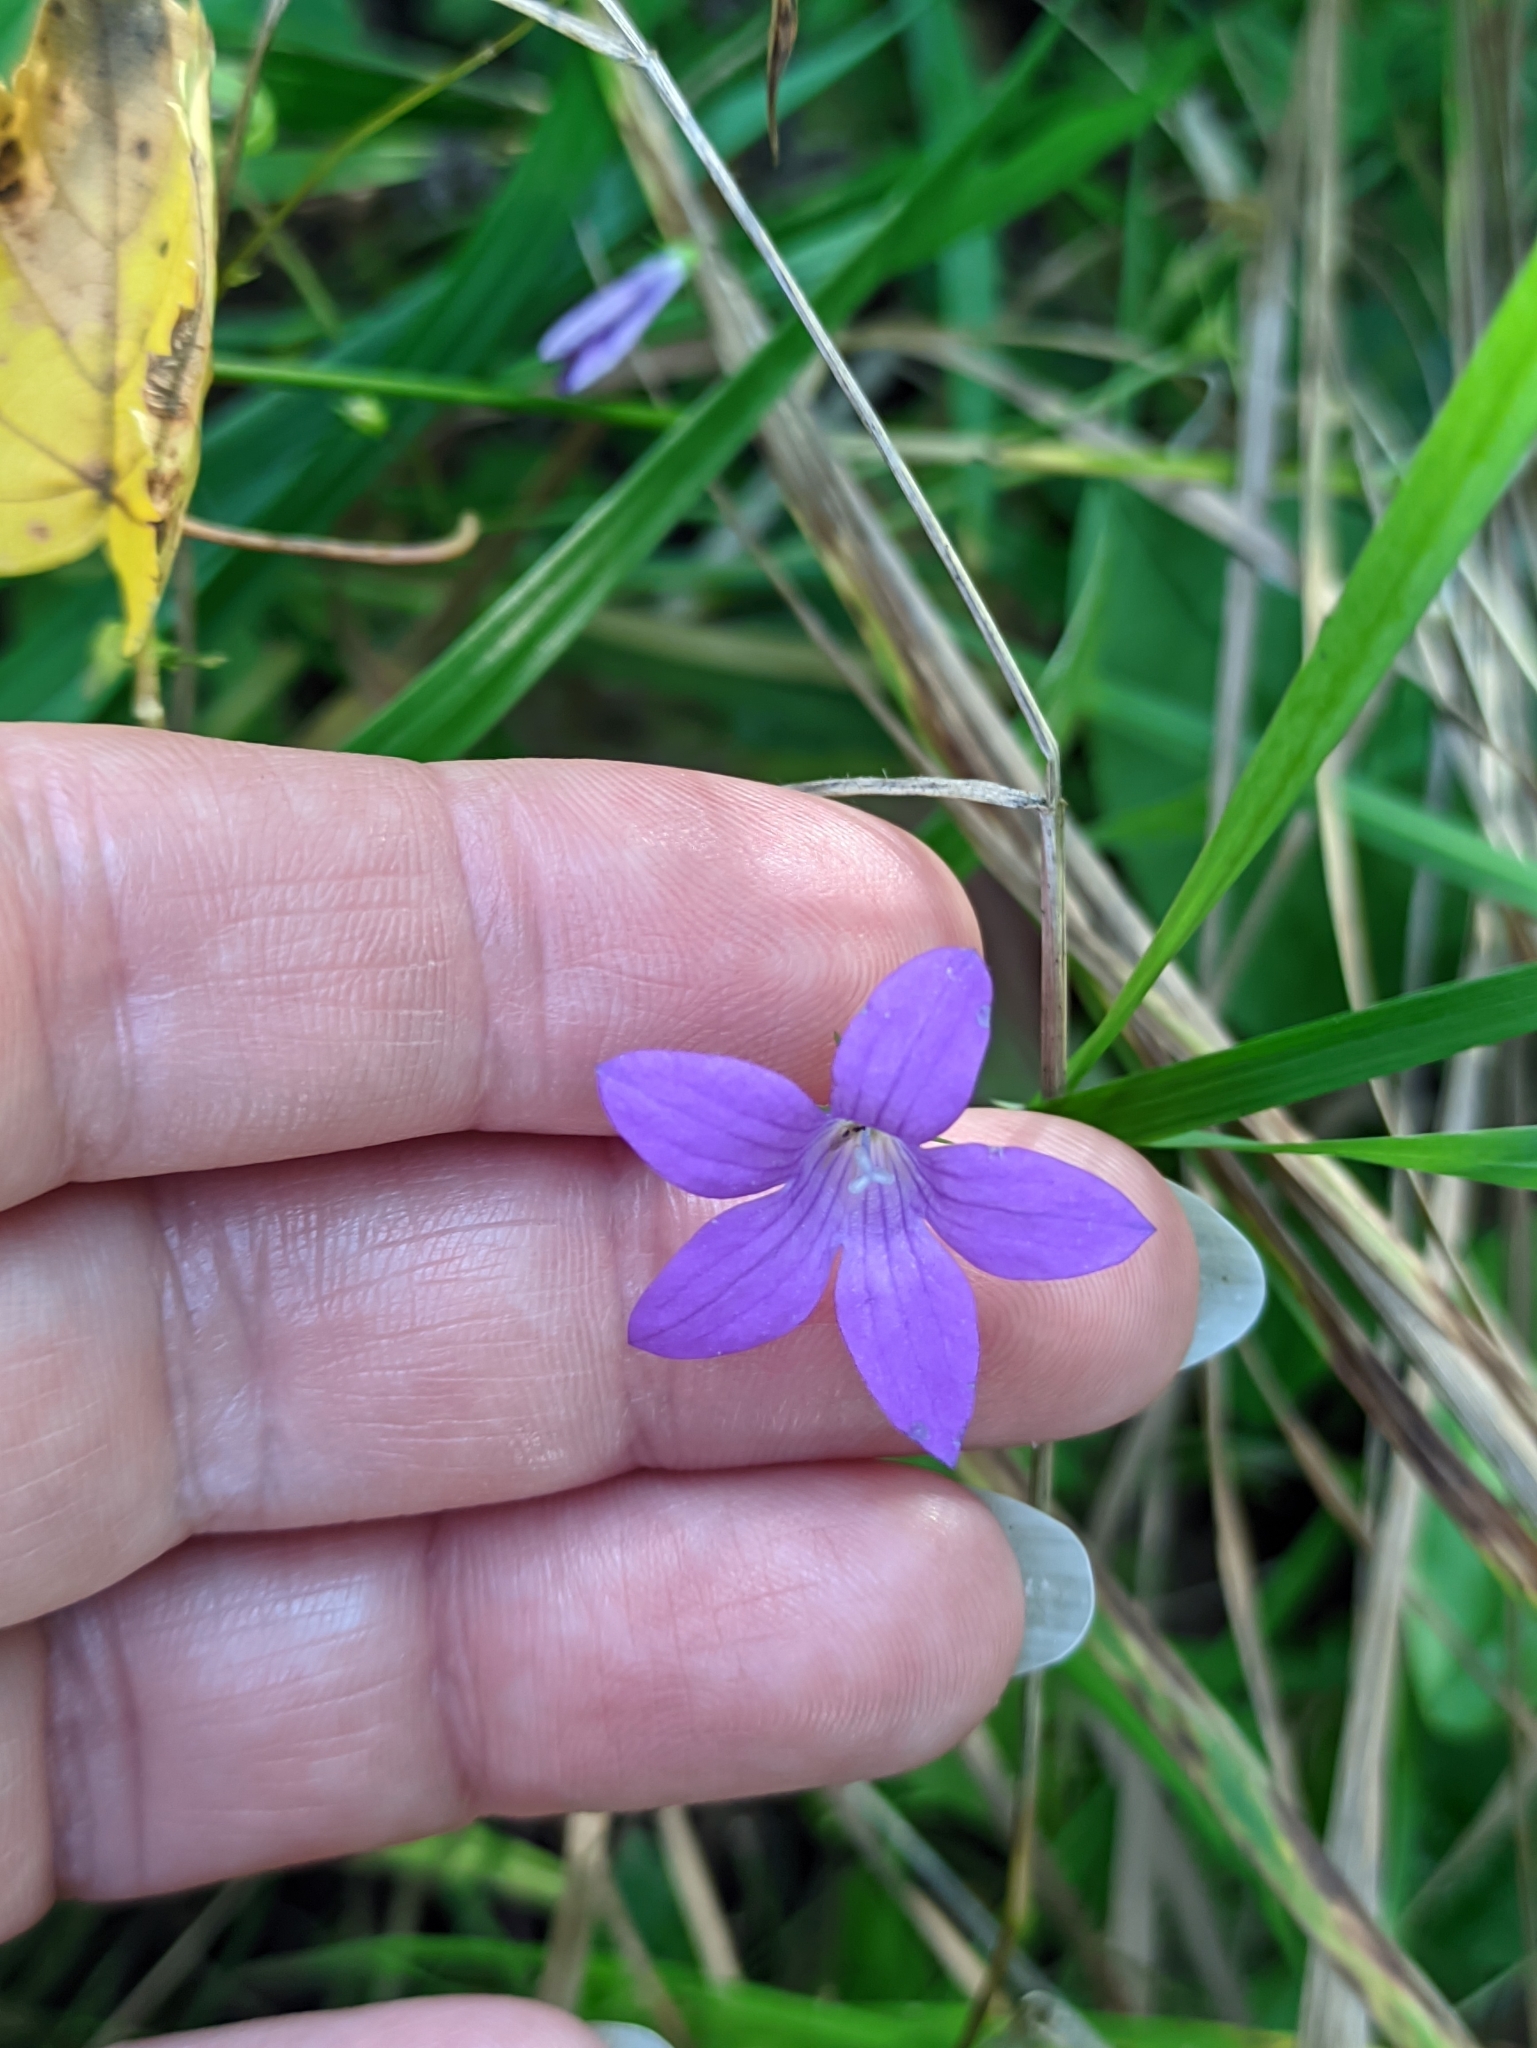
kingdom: Plantae
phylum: Tracheophyta
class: Magnoliopsida
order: Asterales
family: Campanulaceae
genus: Campanula
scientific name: Campanula patula
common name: Spreading bellflower
